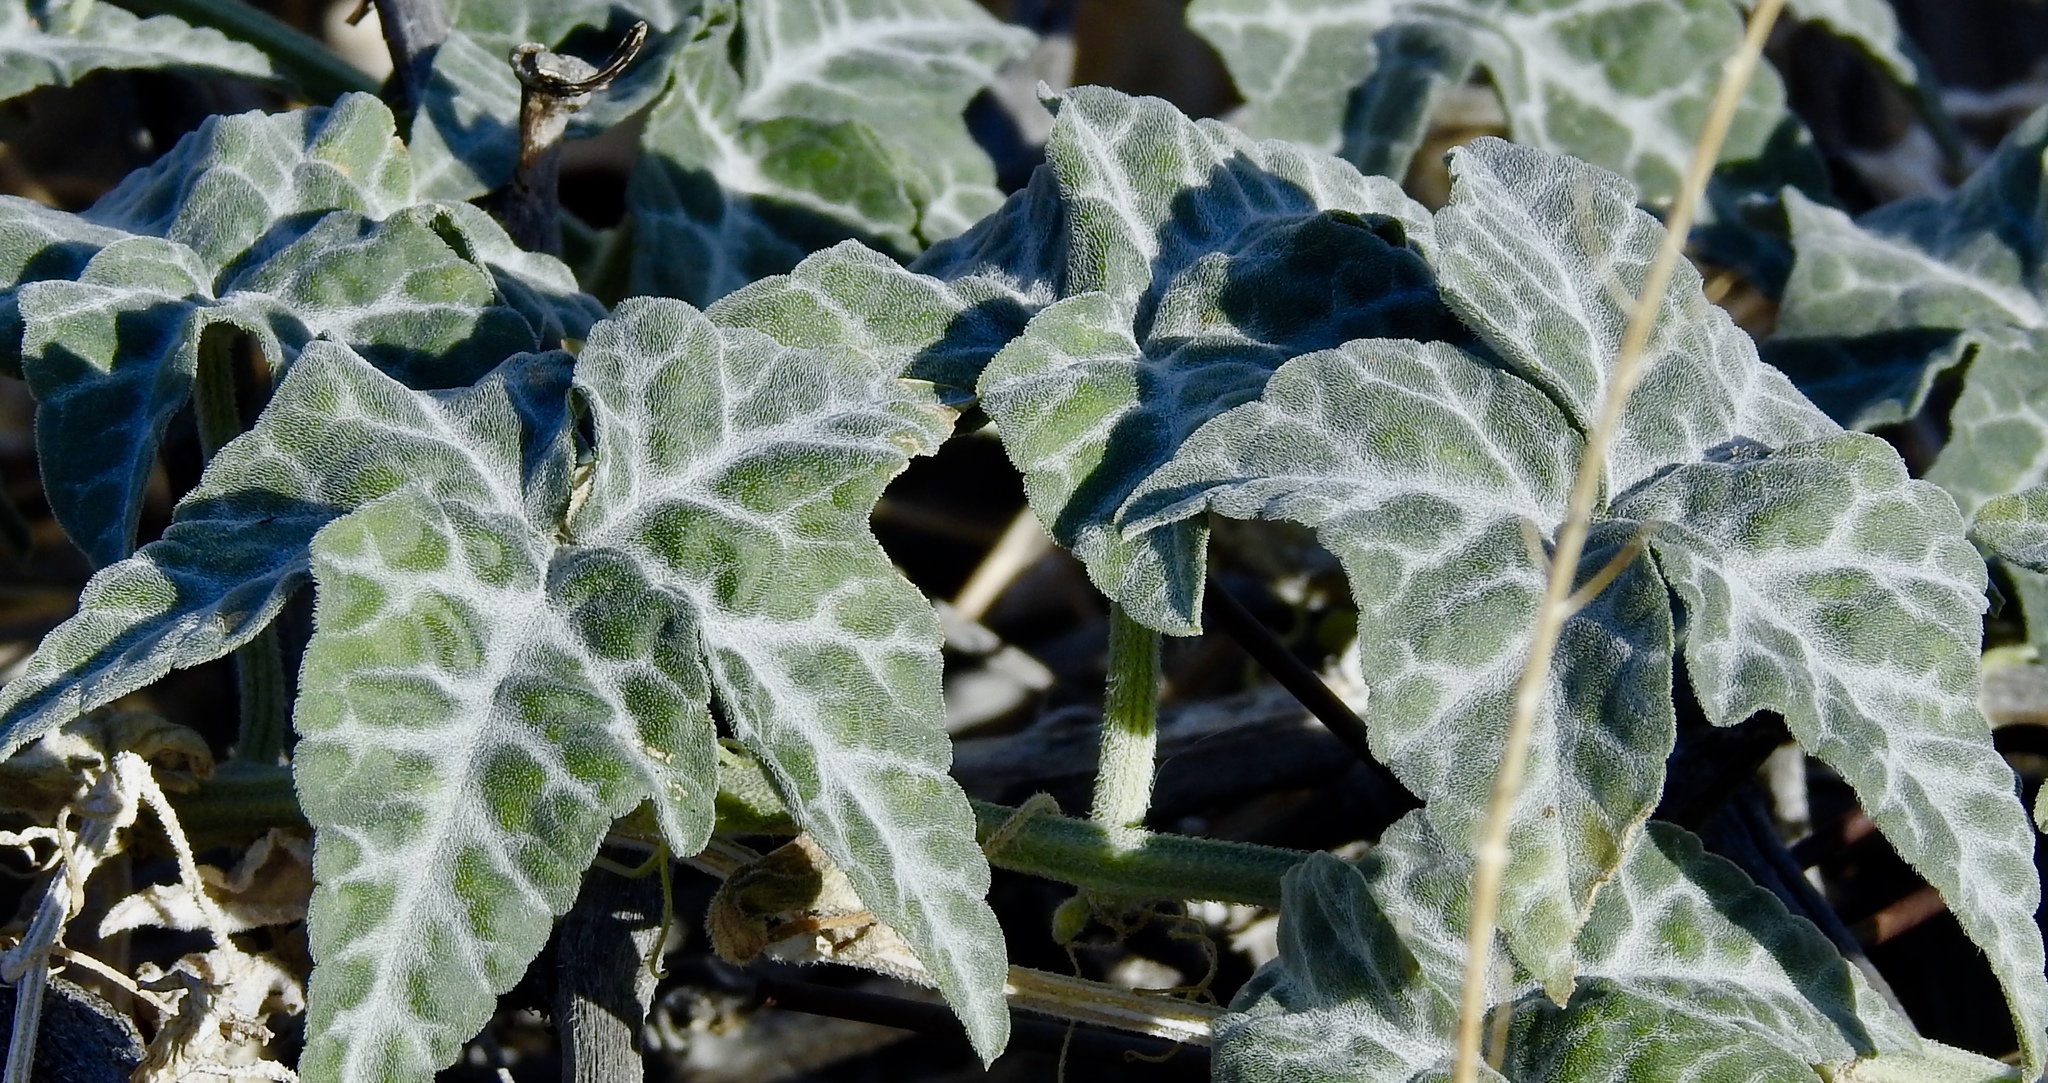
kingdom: Plantae
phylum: Tracheophyta
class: Magnoliopsida
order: Cucurbitales
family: Cucurbitaceae
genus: Cucurbita
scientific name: Cucurbita palmata
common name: Coyote-melon
